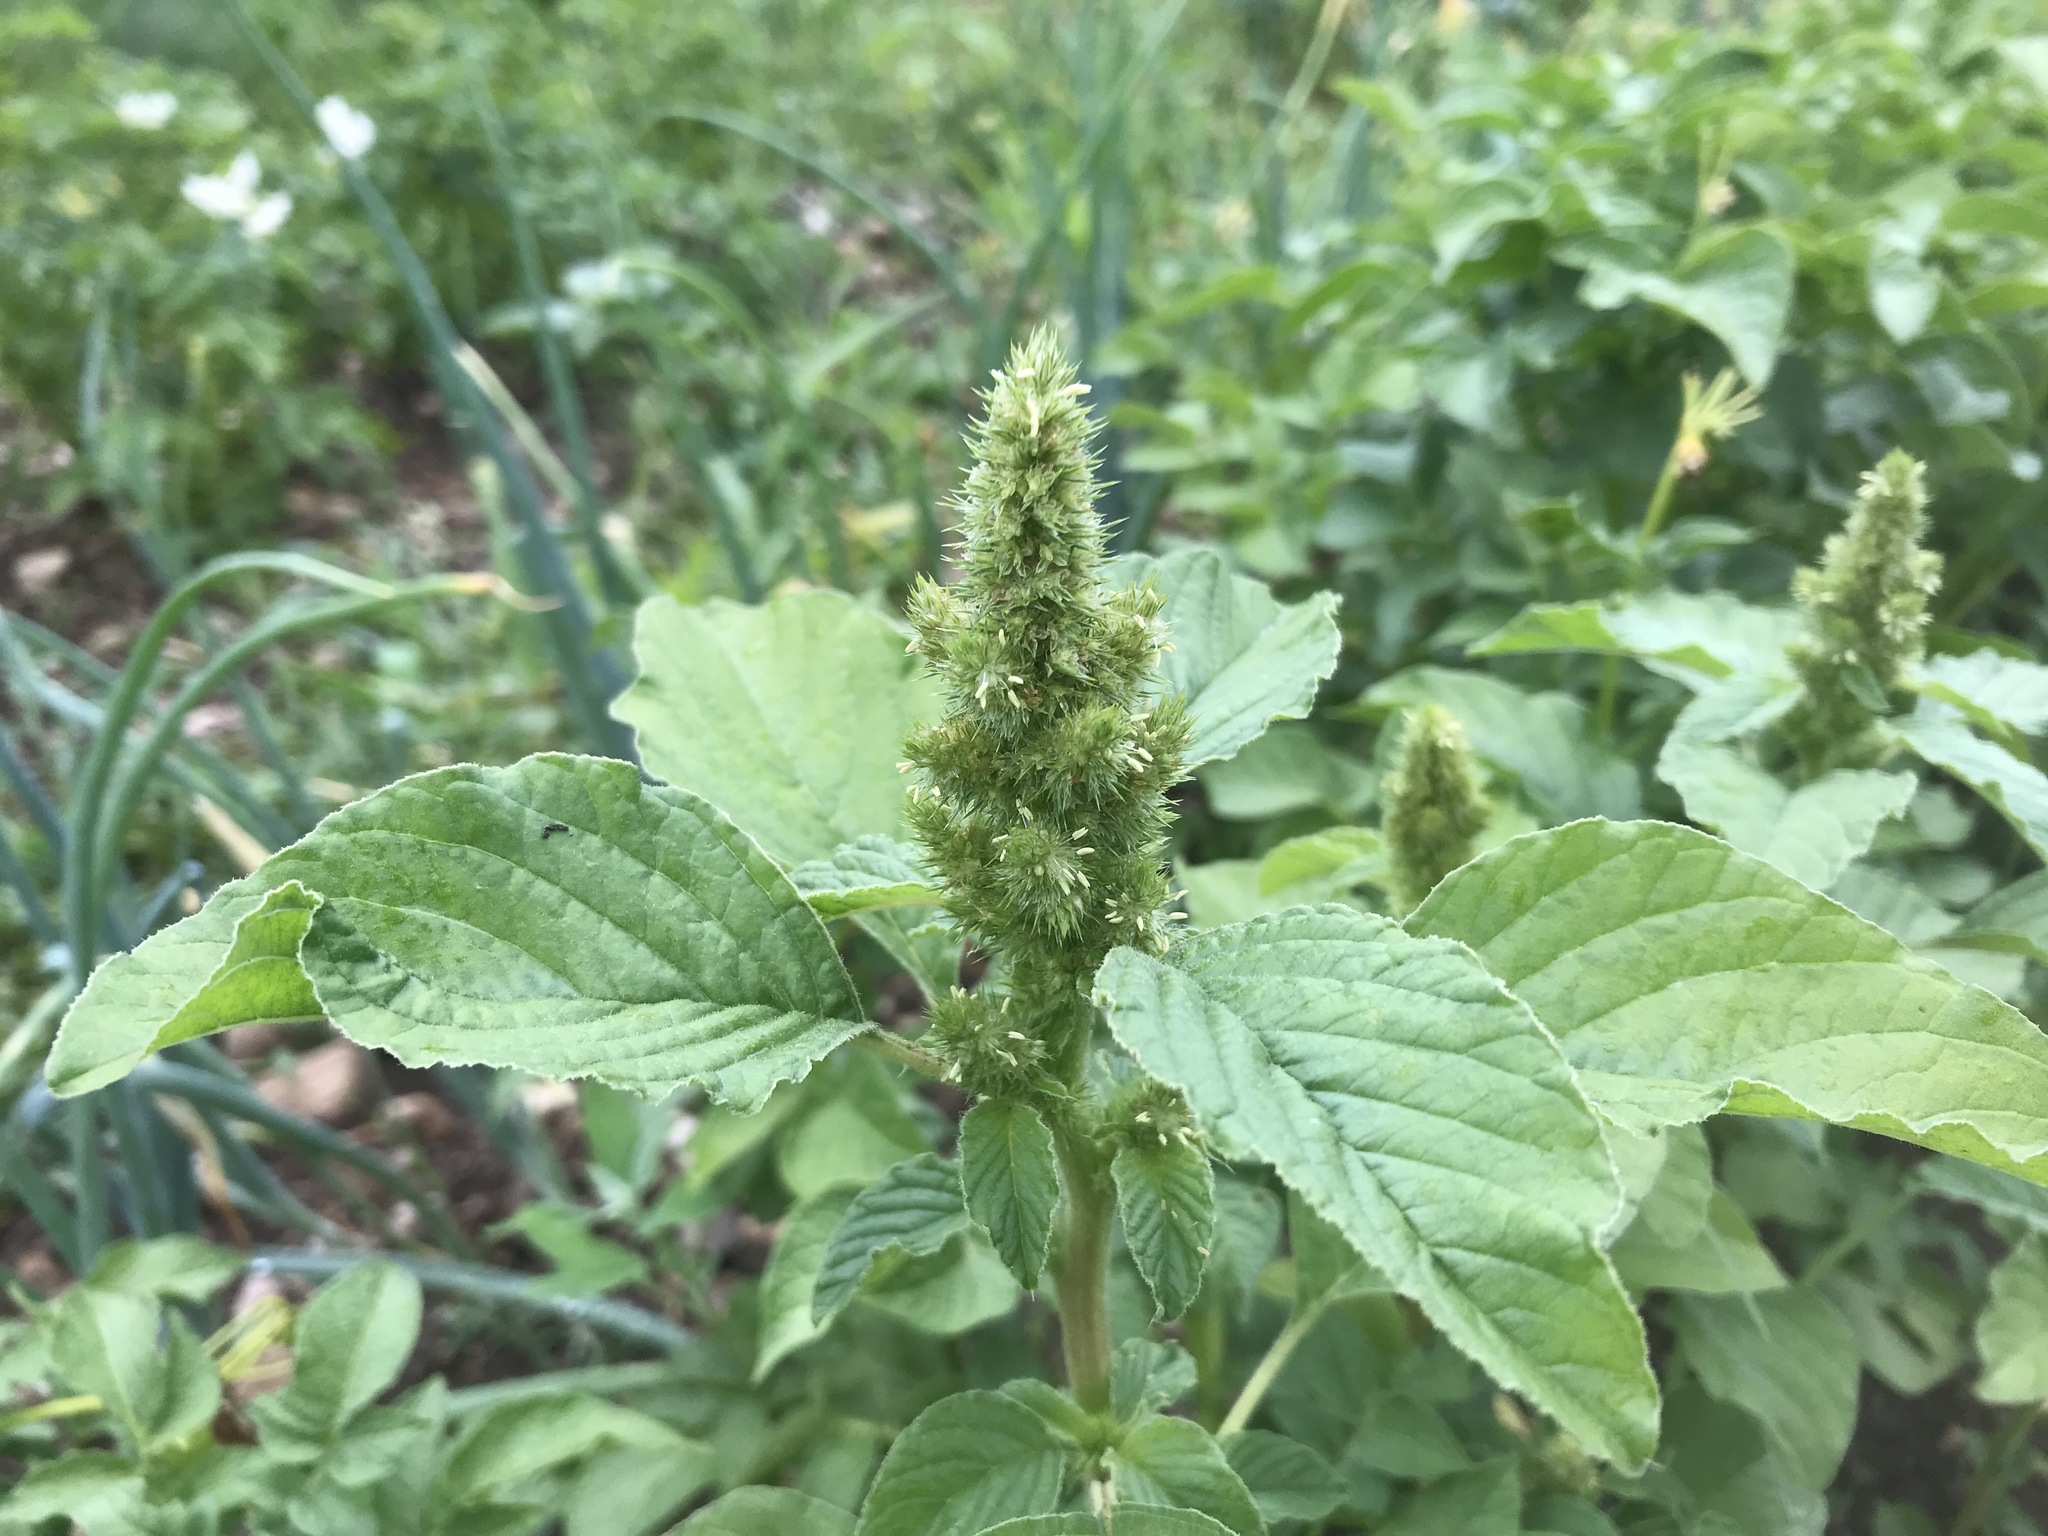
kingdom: Plantae
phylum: Tracheophyta
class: Magnoliopsida
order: Caryophyllales
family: Amaranthaceae
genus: Amaranthus
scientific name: Amaranthus retroflexus
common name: Redroot amaranth
